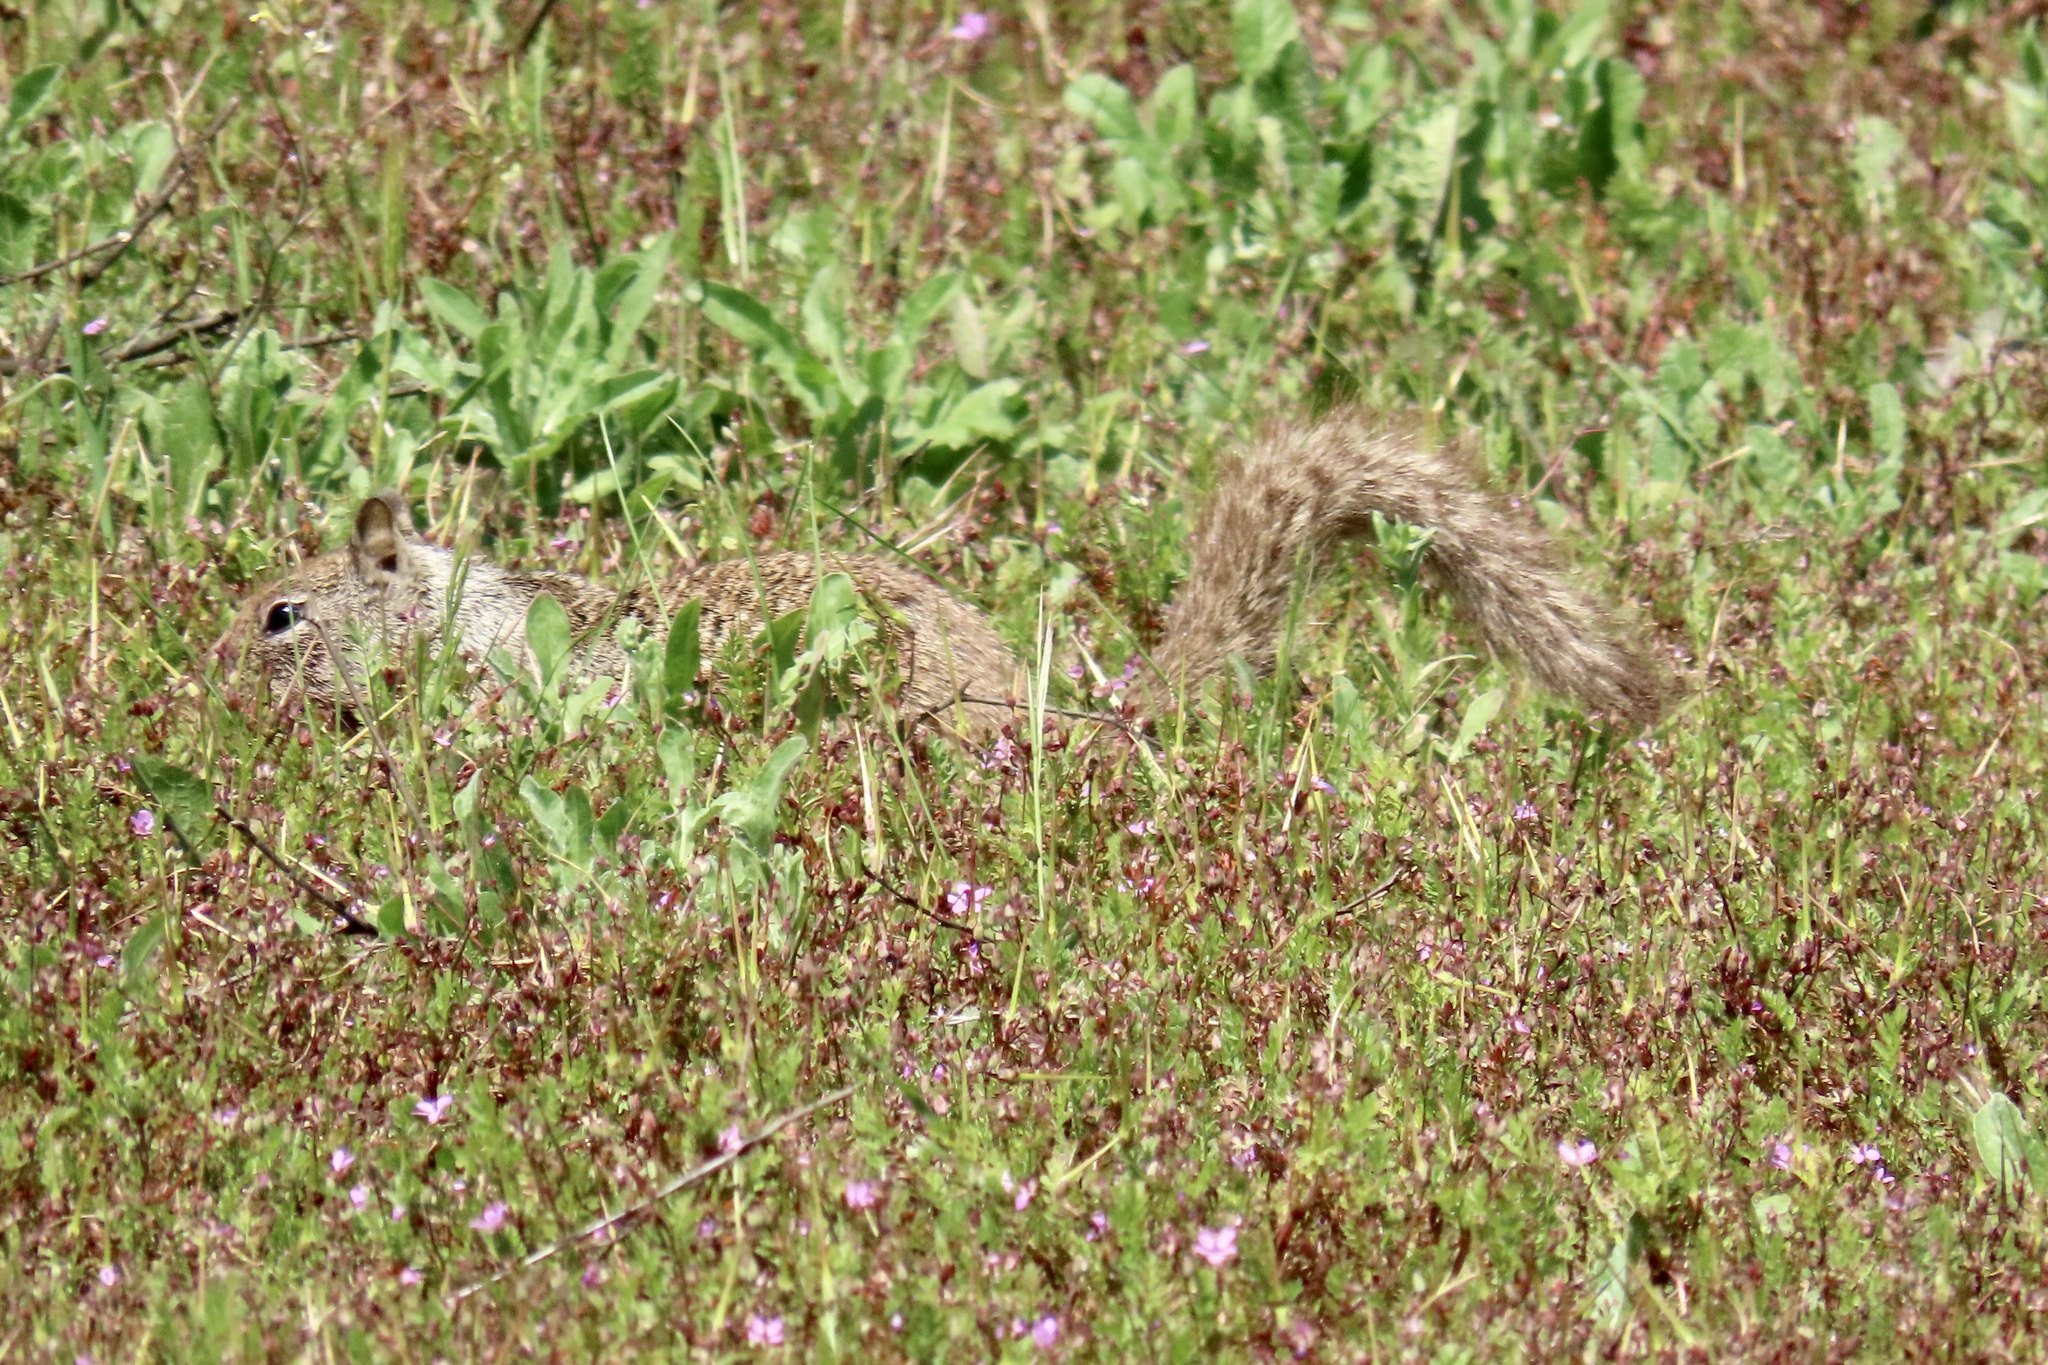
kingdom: Animalia
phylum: Chordata
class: Mammalia
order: Rodentia
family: Sciuridae
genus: Otospermophilus
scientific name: Otospermophilus beecheyi
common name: California ground squirrel
